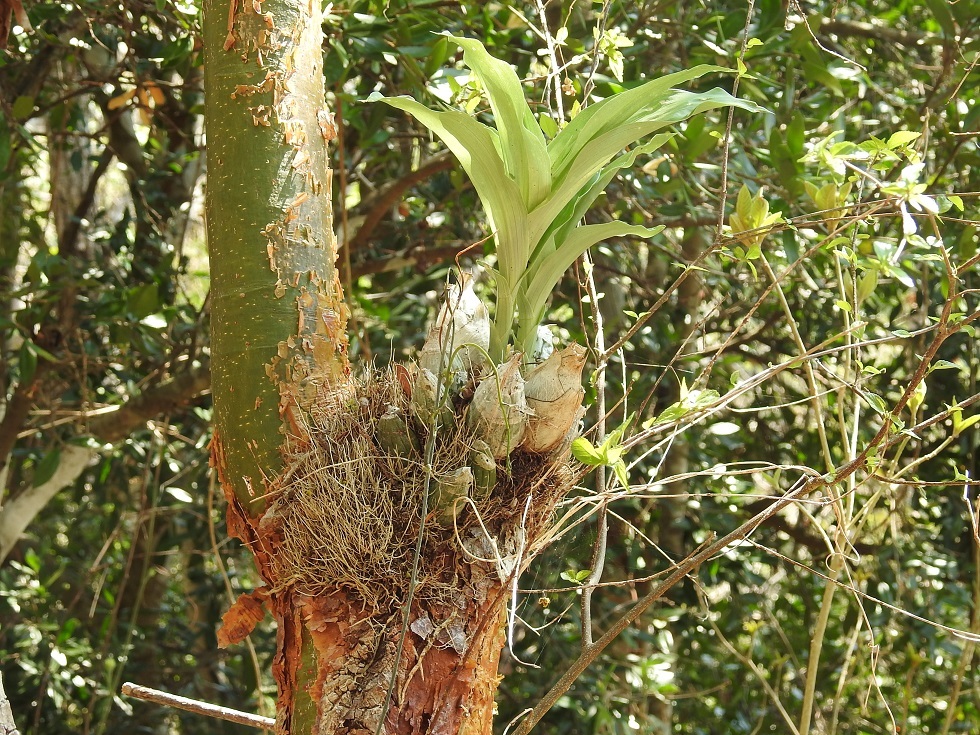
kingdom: Plantae
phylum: Tracheophyta
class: Liliopsida
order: Asparagales
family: Orchidaceae
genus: Catasetum
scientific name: Catasetum integerrimum
